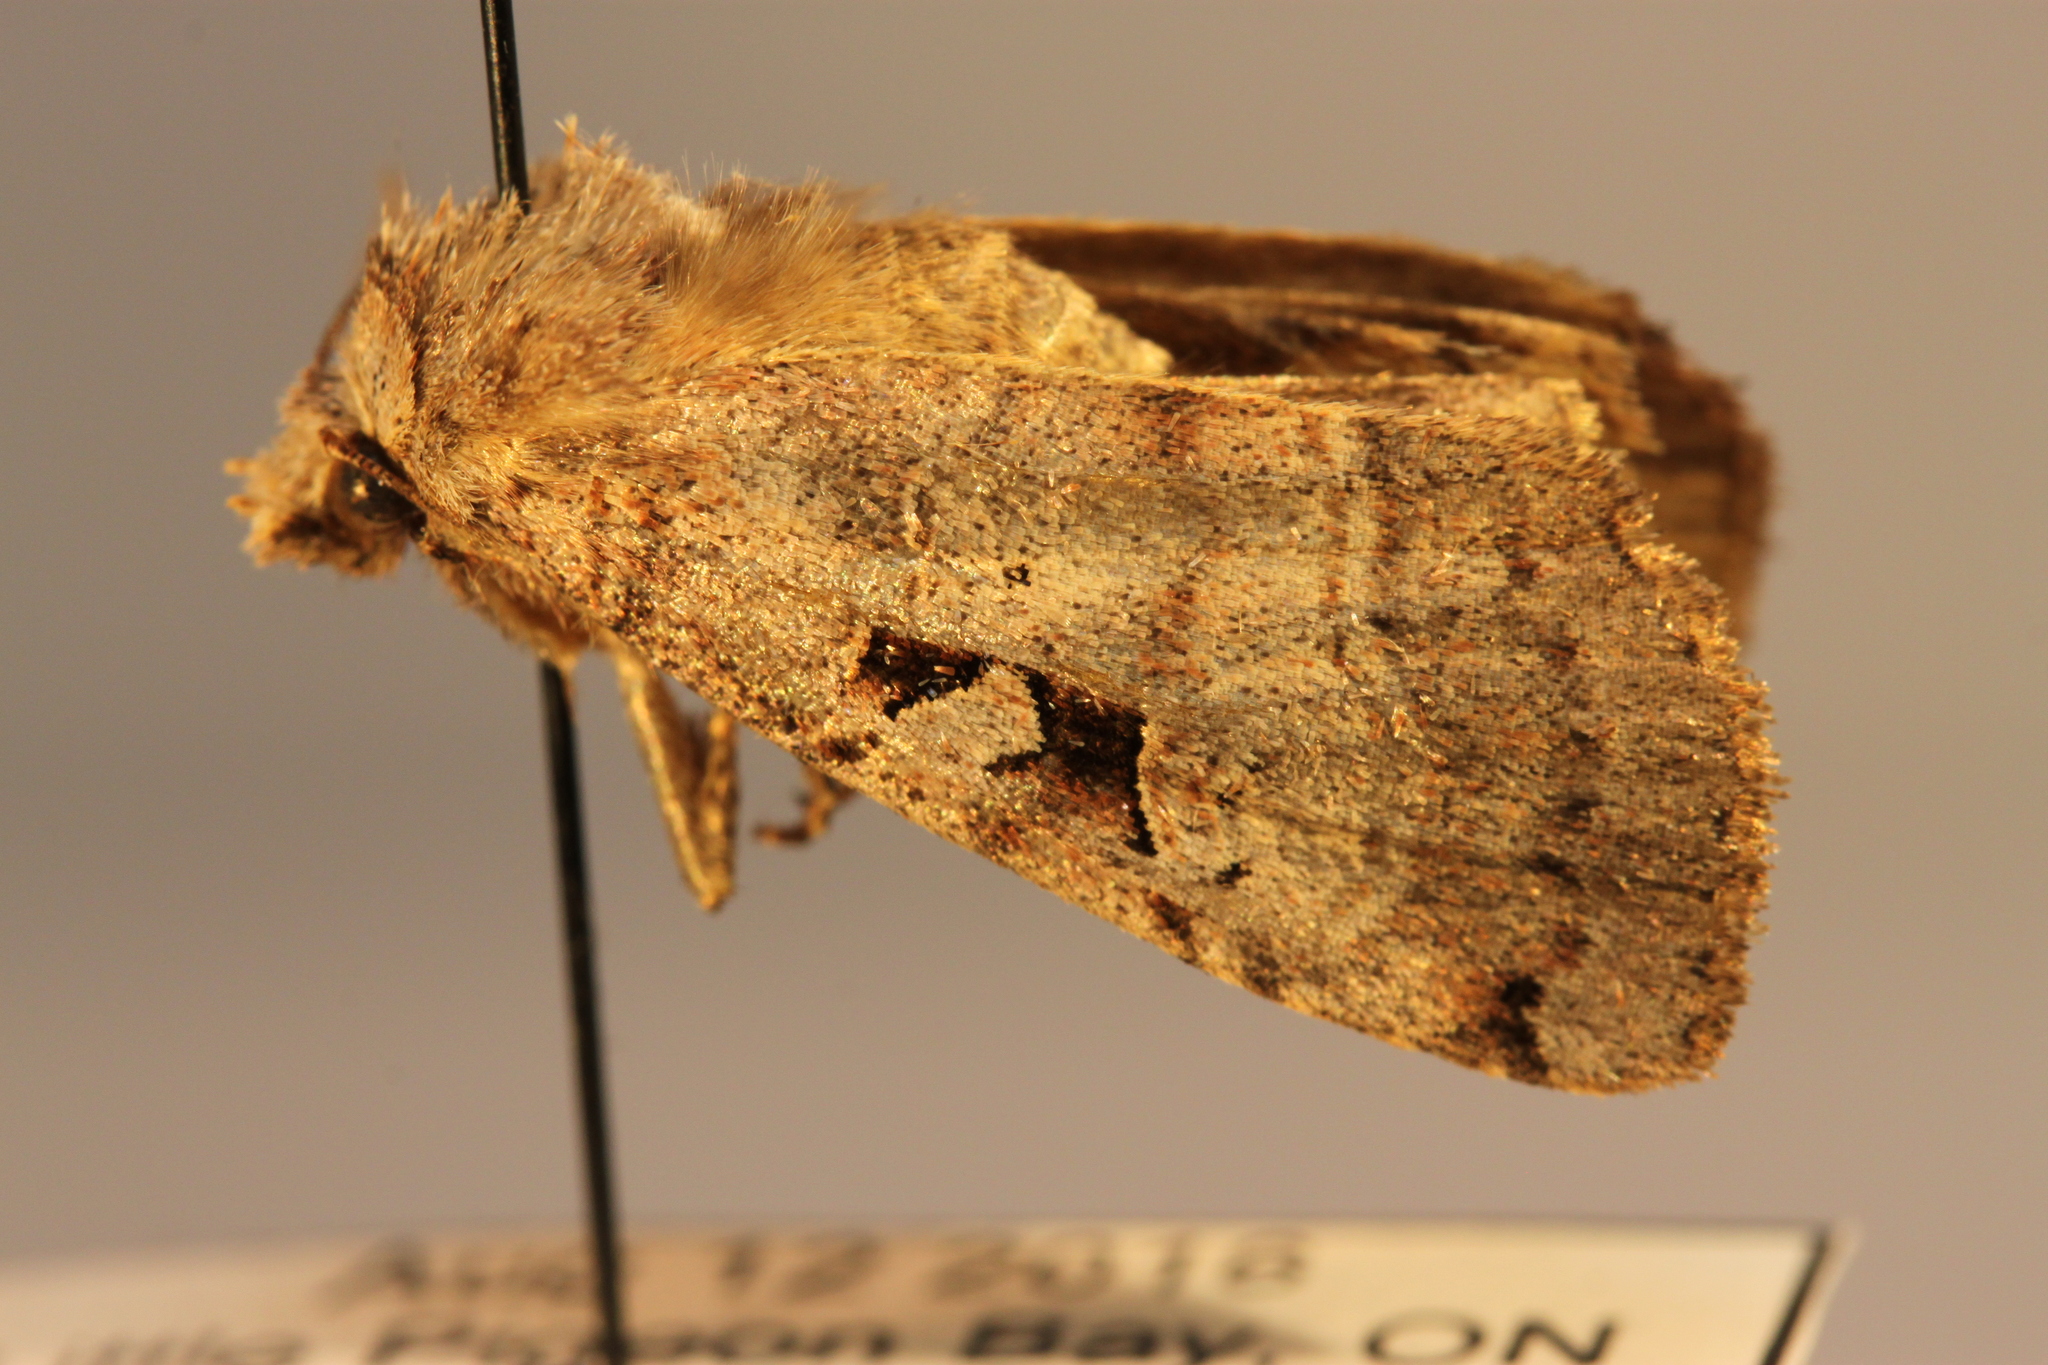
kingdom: Animalia
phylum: Arthropoda
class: Insecta
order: Lepidoptera
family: Noctuidae
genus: Xestia
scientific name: Xestia normaniana
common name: Norman's dart moth
